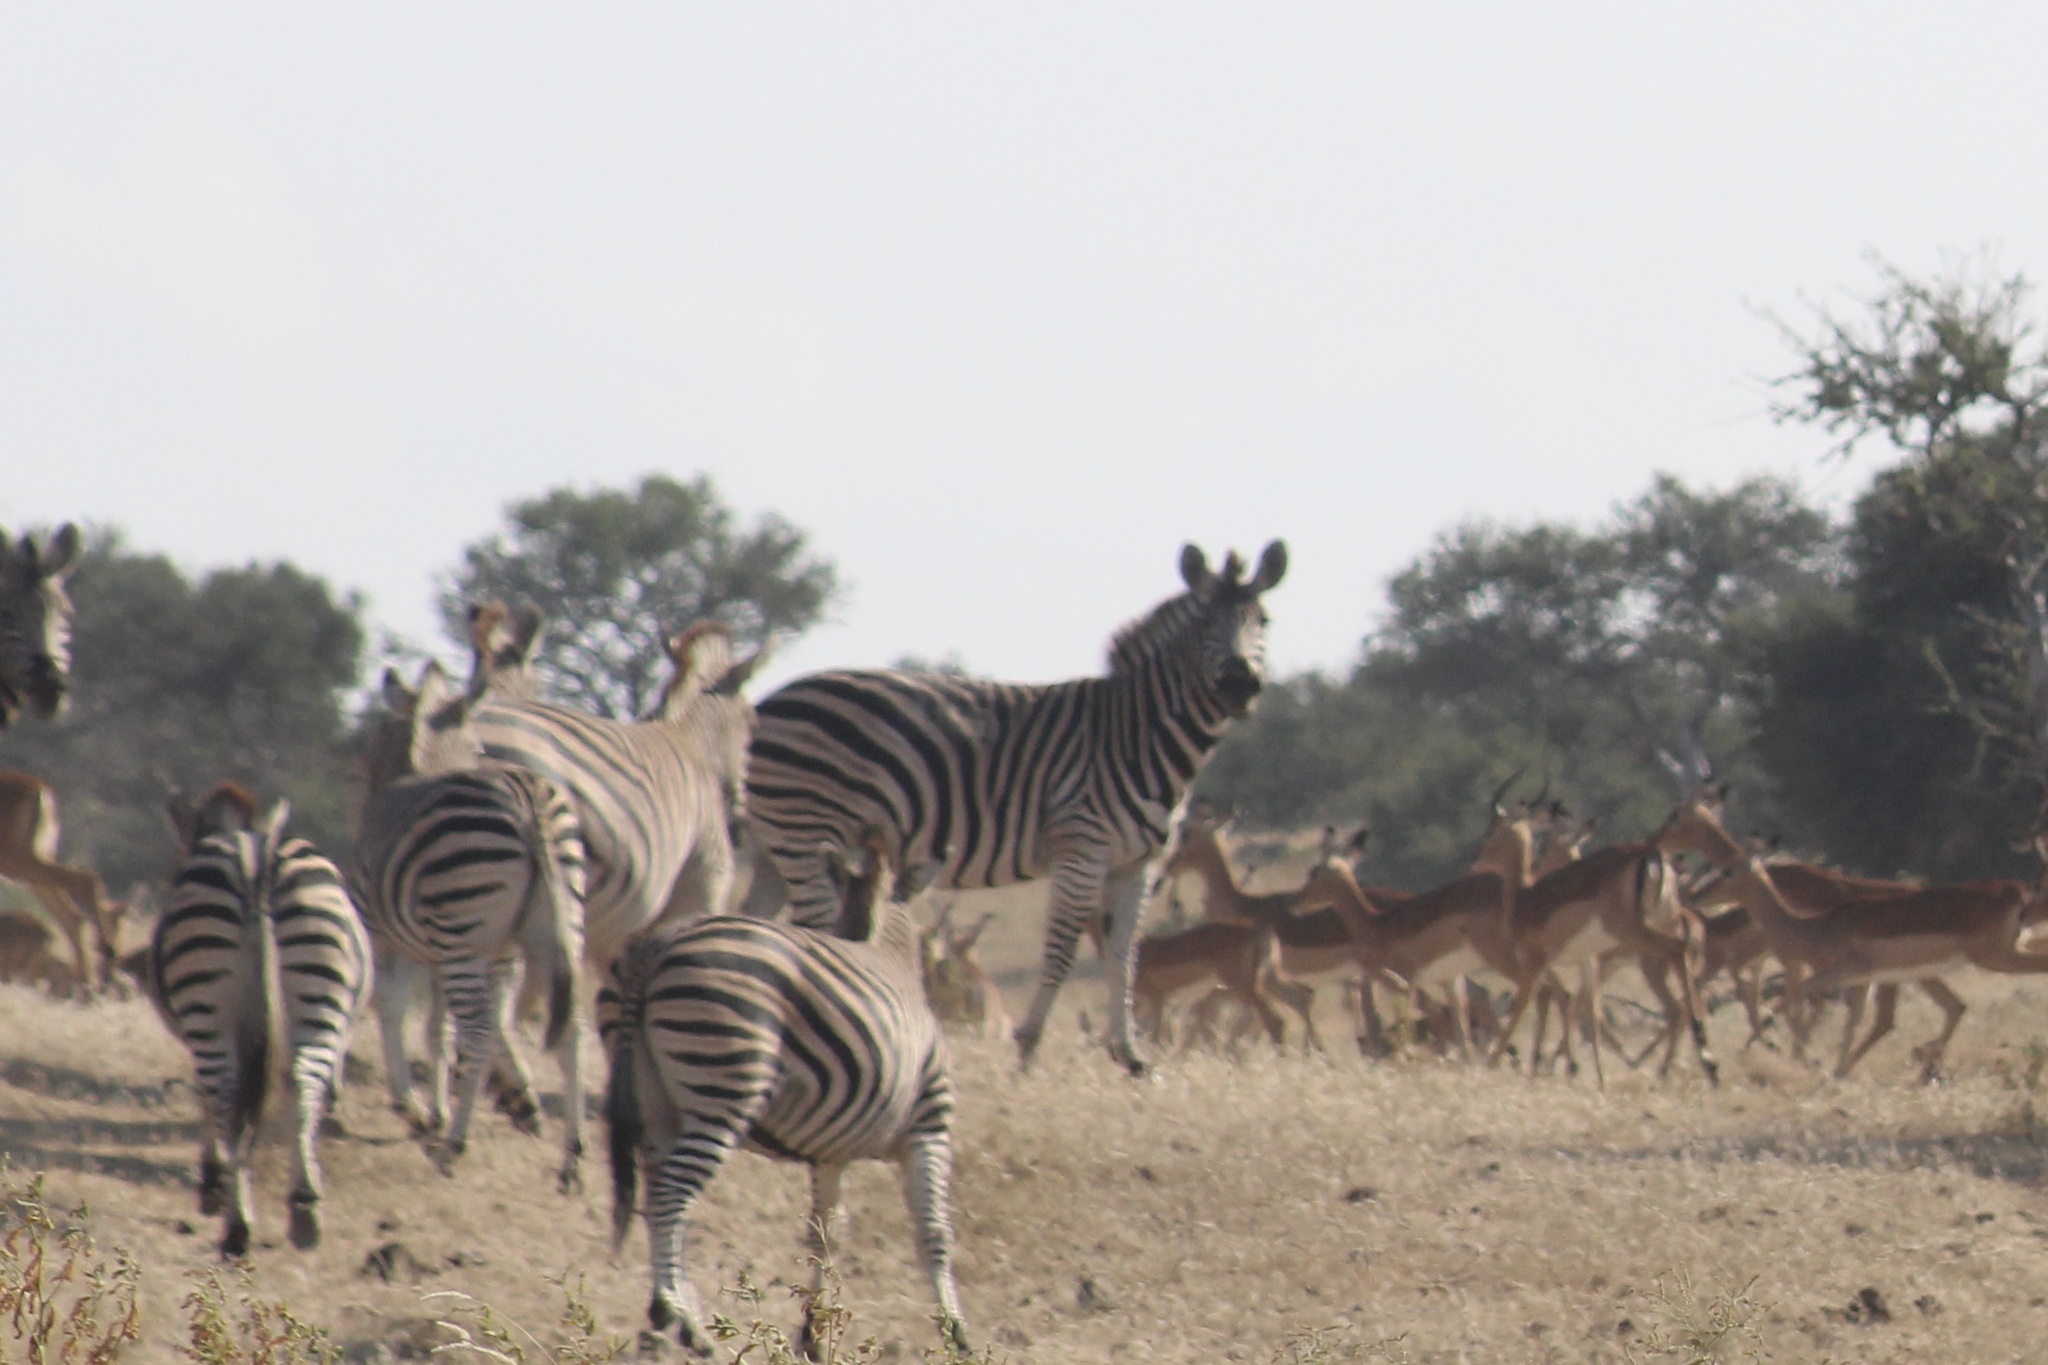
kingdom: Animalia
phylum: Chordata
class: Mammalia
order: Perissodactyla
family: Equidae
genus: Equus
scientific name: Equus quagga
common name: Plains zebra
